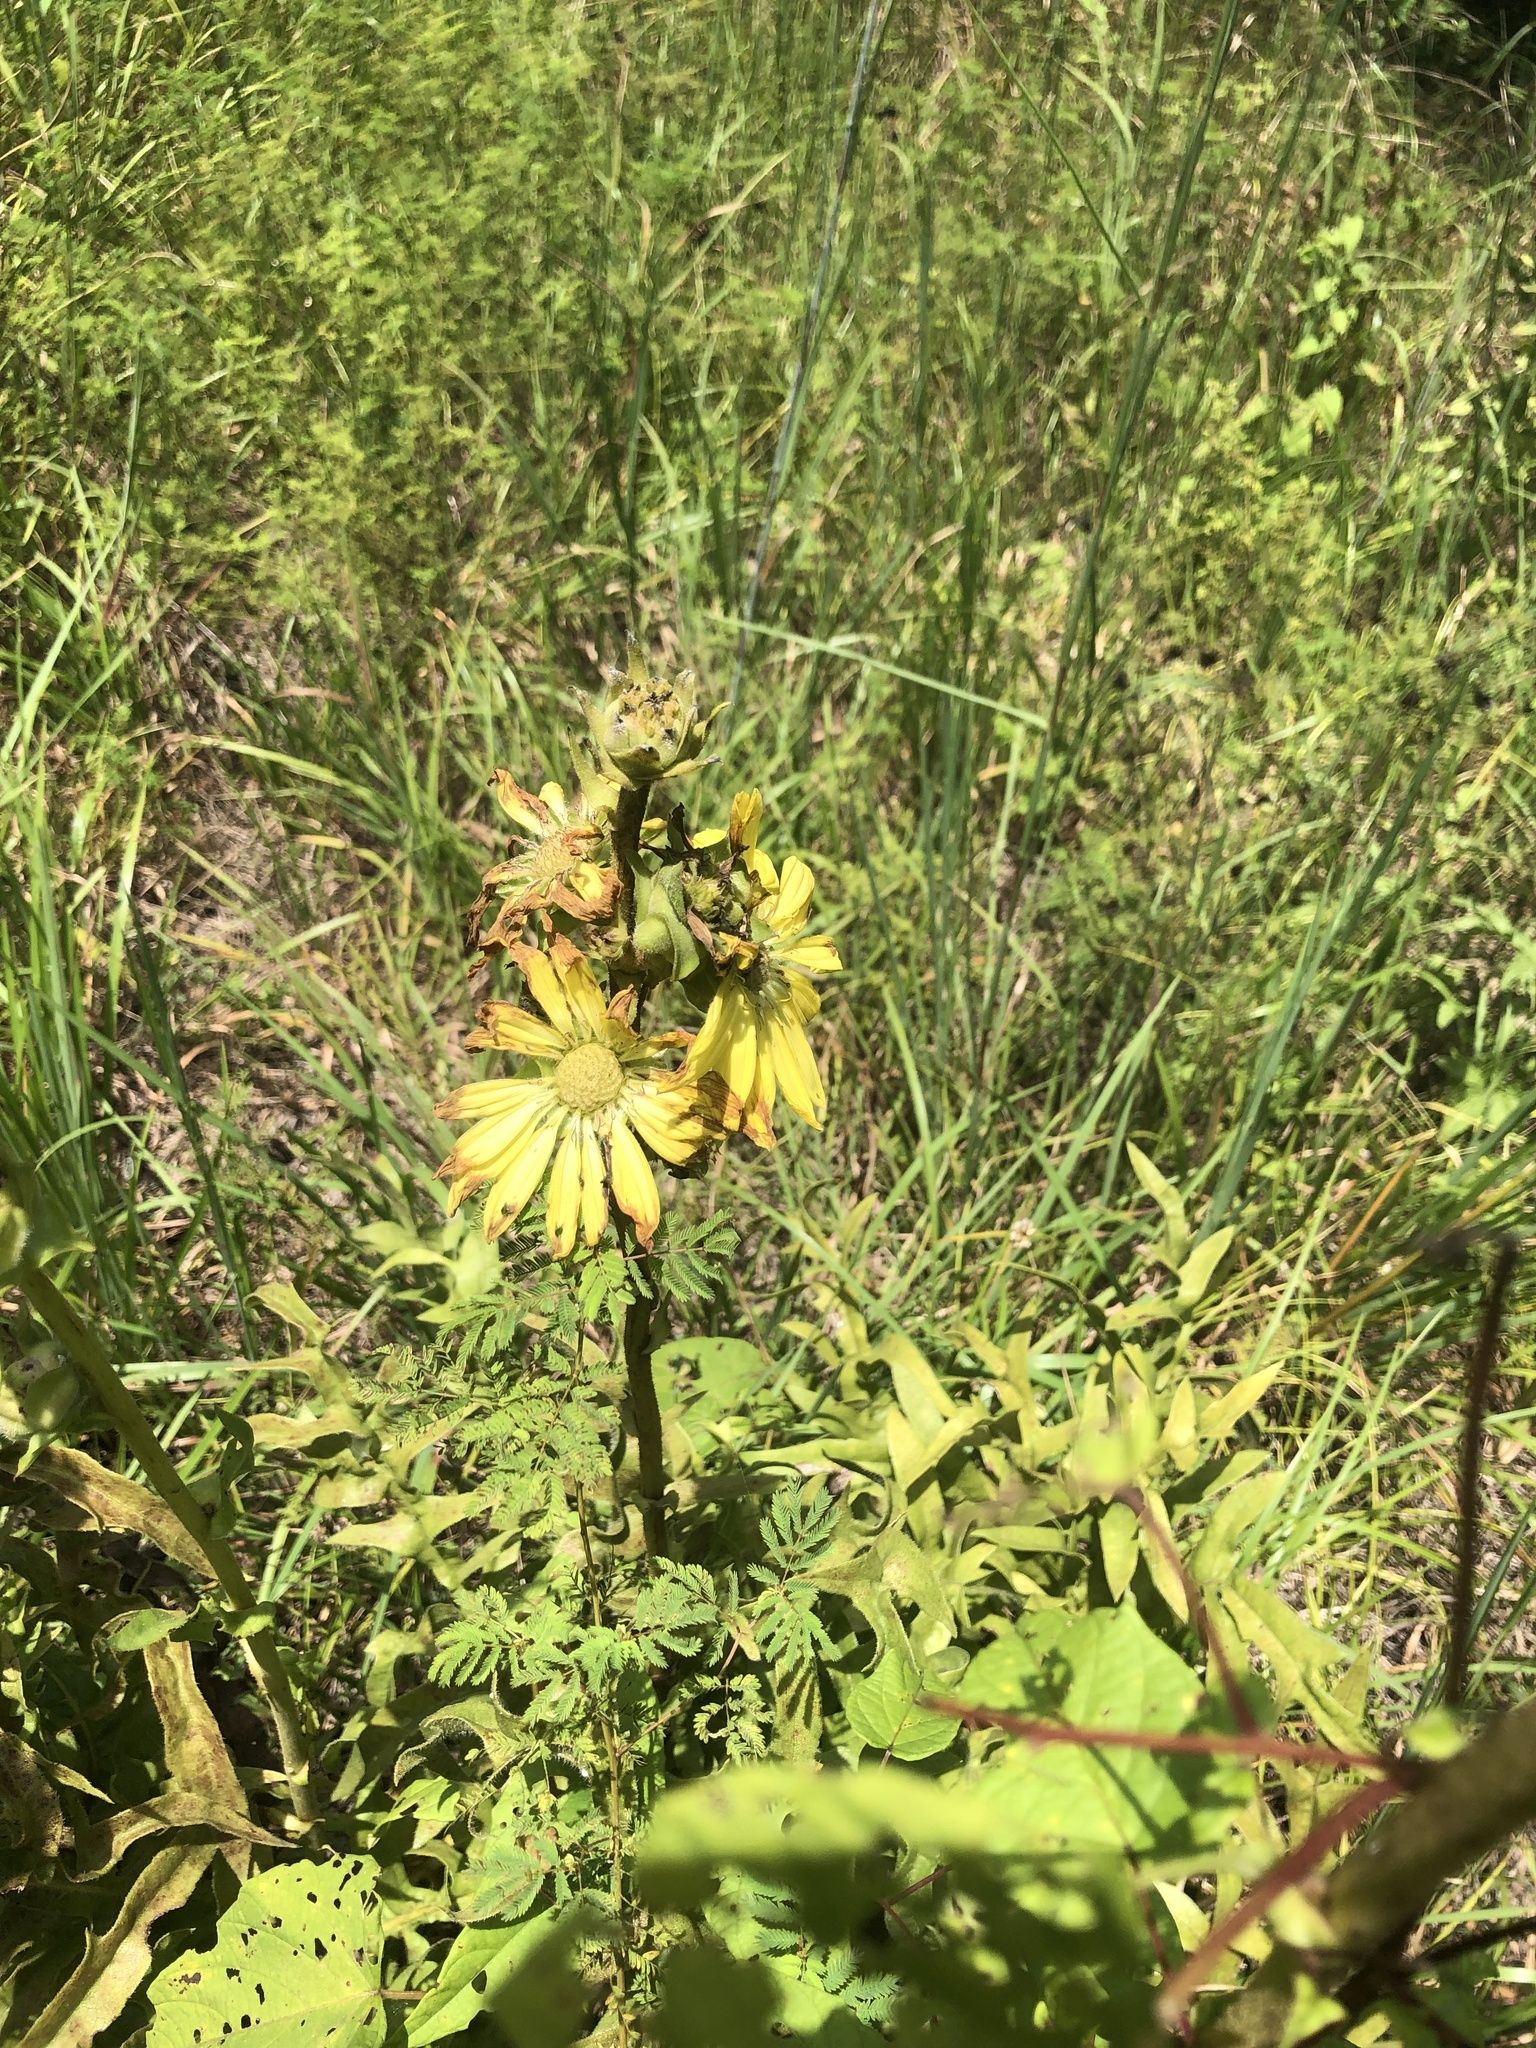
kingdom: Plantae
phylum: Tracheophyta
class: Magnoliopsida
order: Asterales
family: Asteraceae
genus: Silphium
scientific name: Silphium laciniatum
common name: Polarplant
